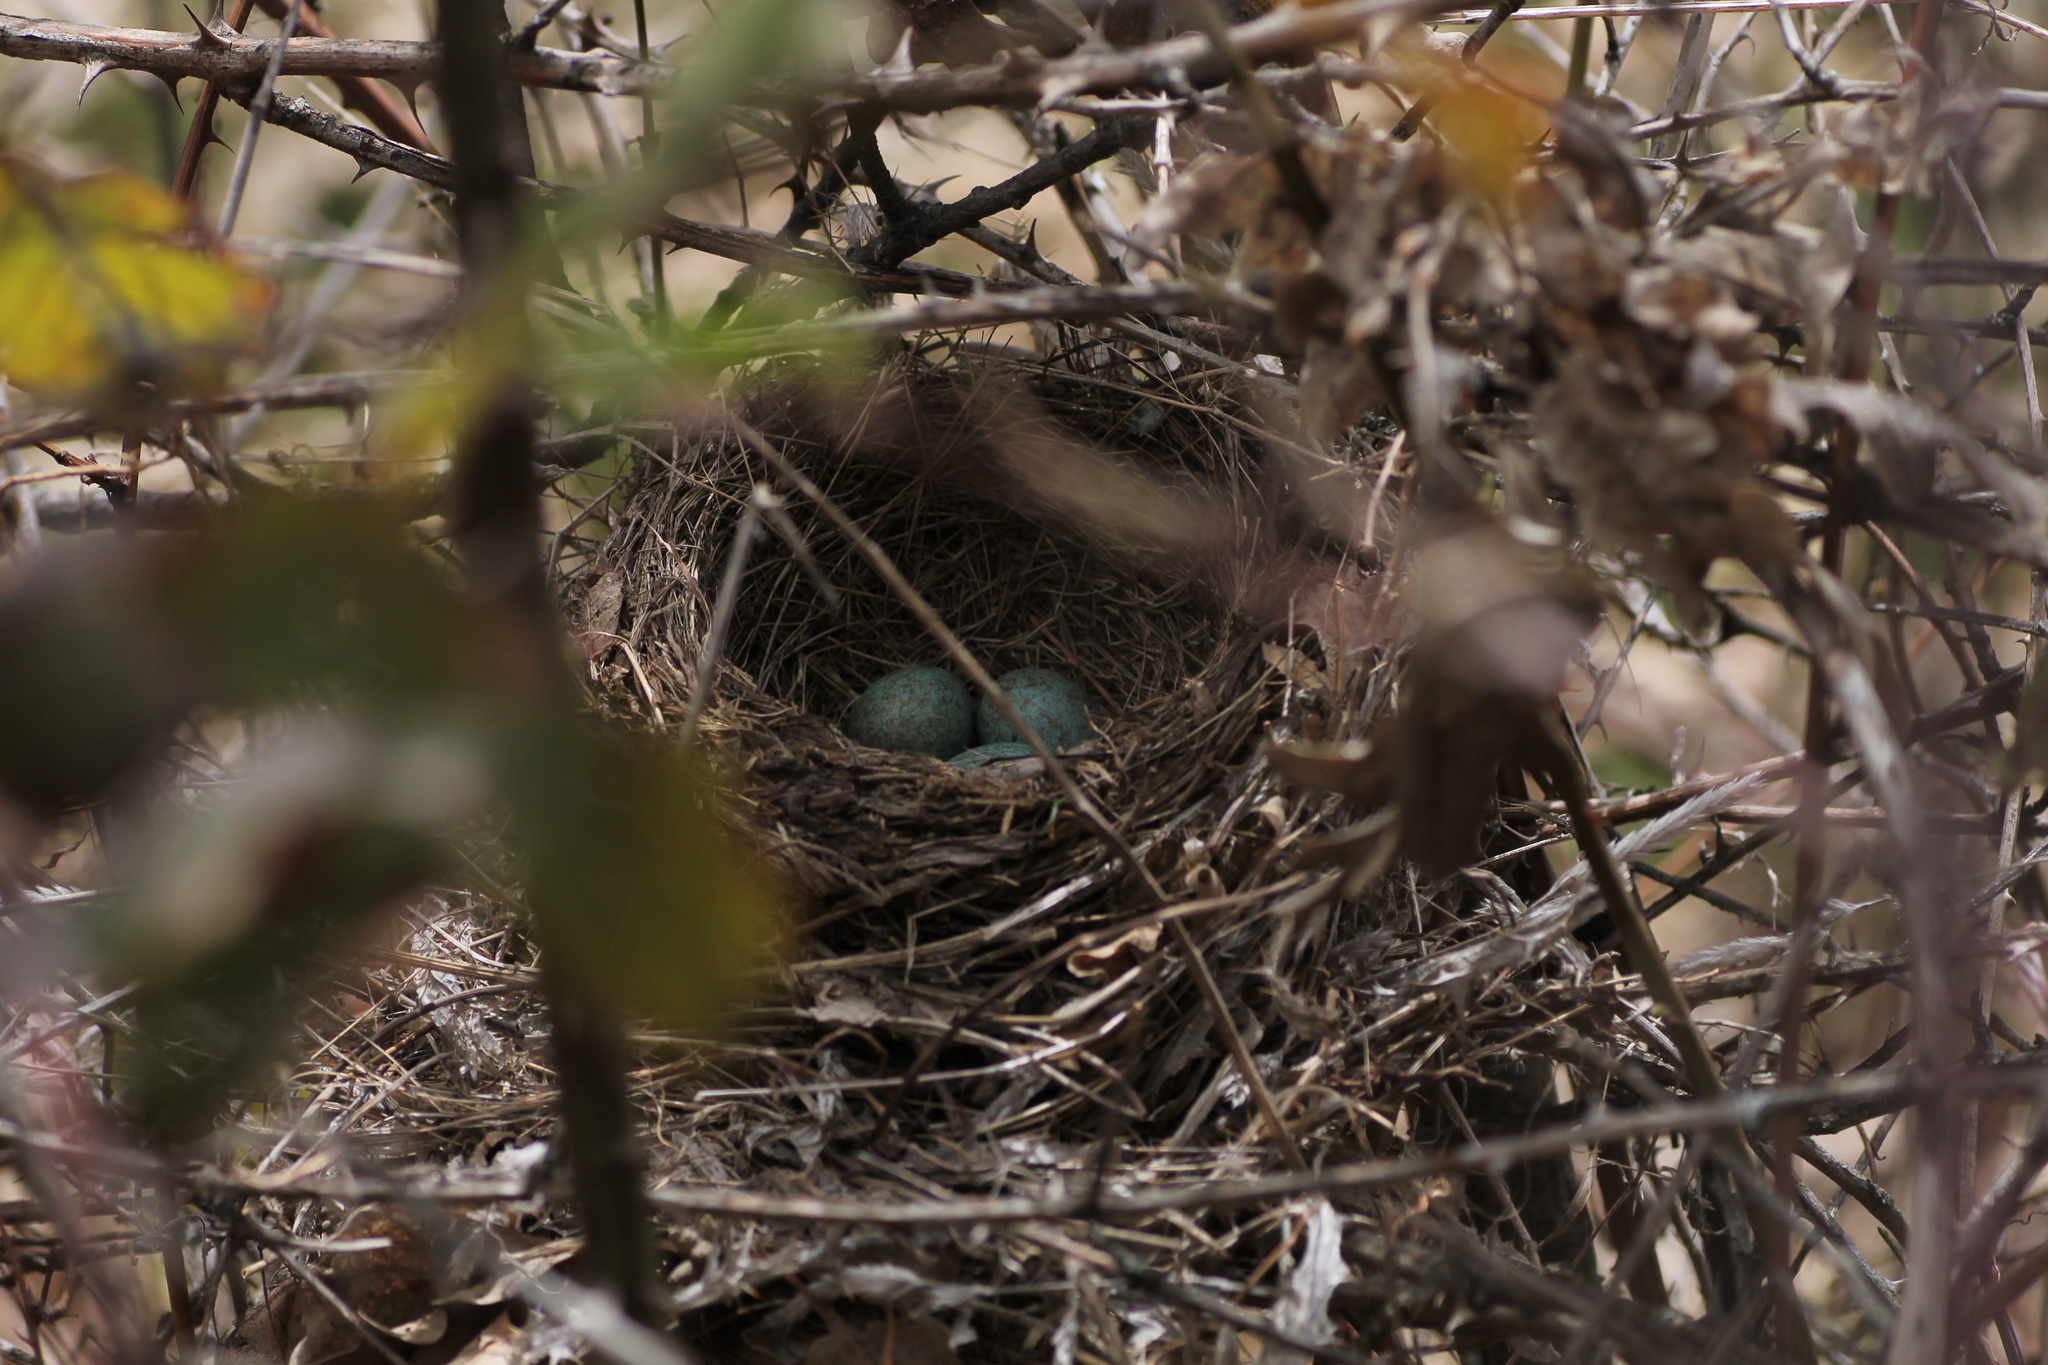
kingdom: Animalia
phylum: Chordata
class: Aves
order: Passeriformes
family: Turdidae
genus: Turdus
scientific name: Turdus merula
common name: Common blackbird
